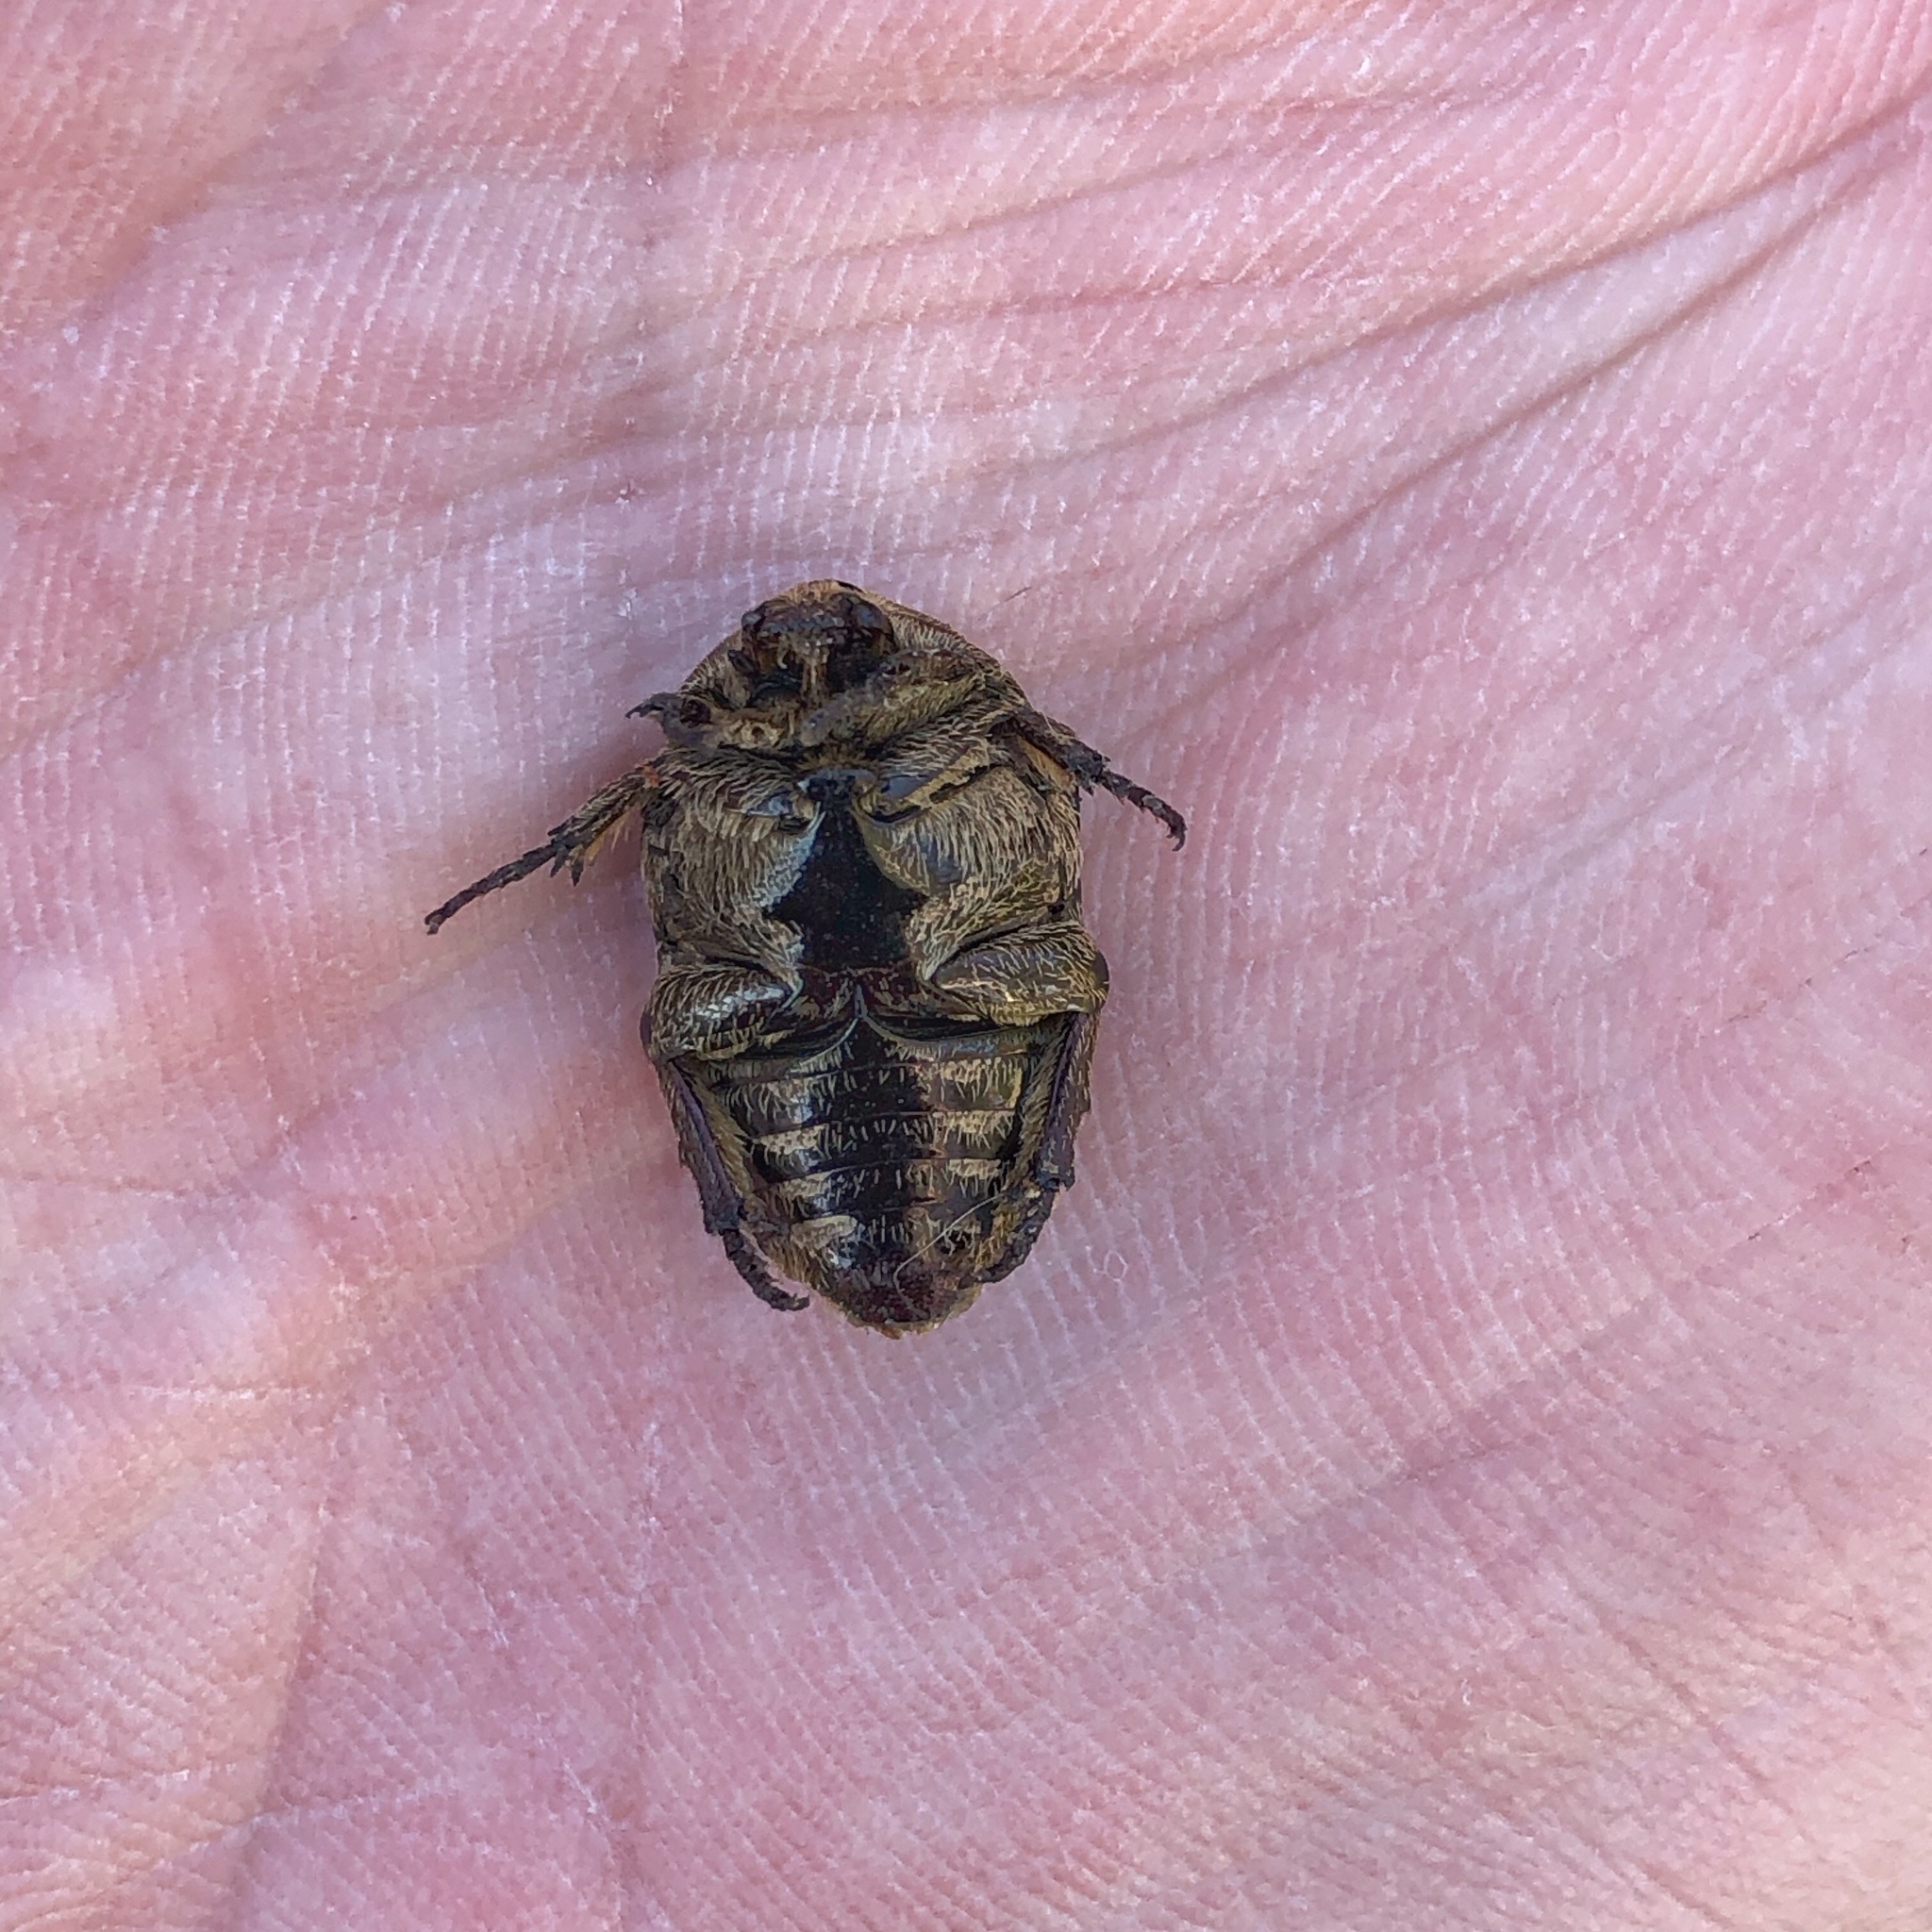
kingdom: Animalia
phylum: Arthropoda
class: Insecta
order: Coleoptera
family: Scarabaeidae
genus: Protaetia
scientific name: Protaetia fusca
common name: Mango flower beetle
